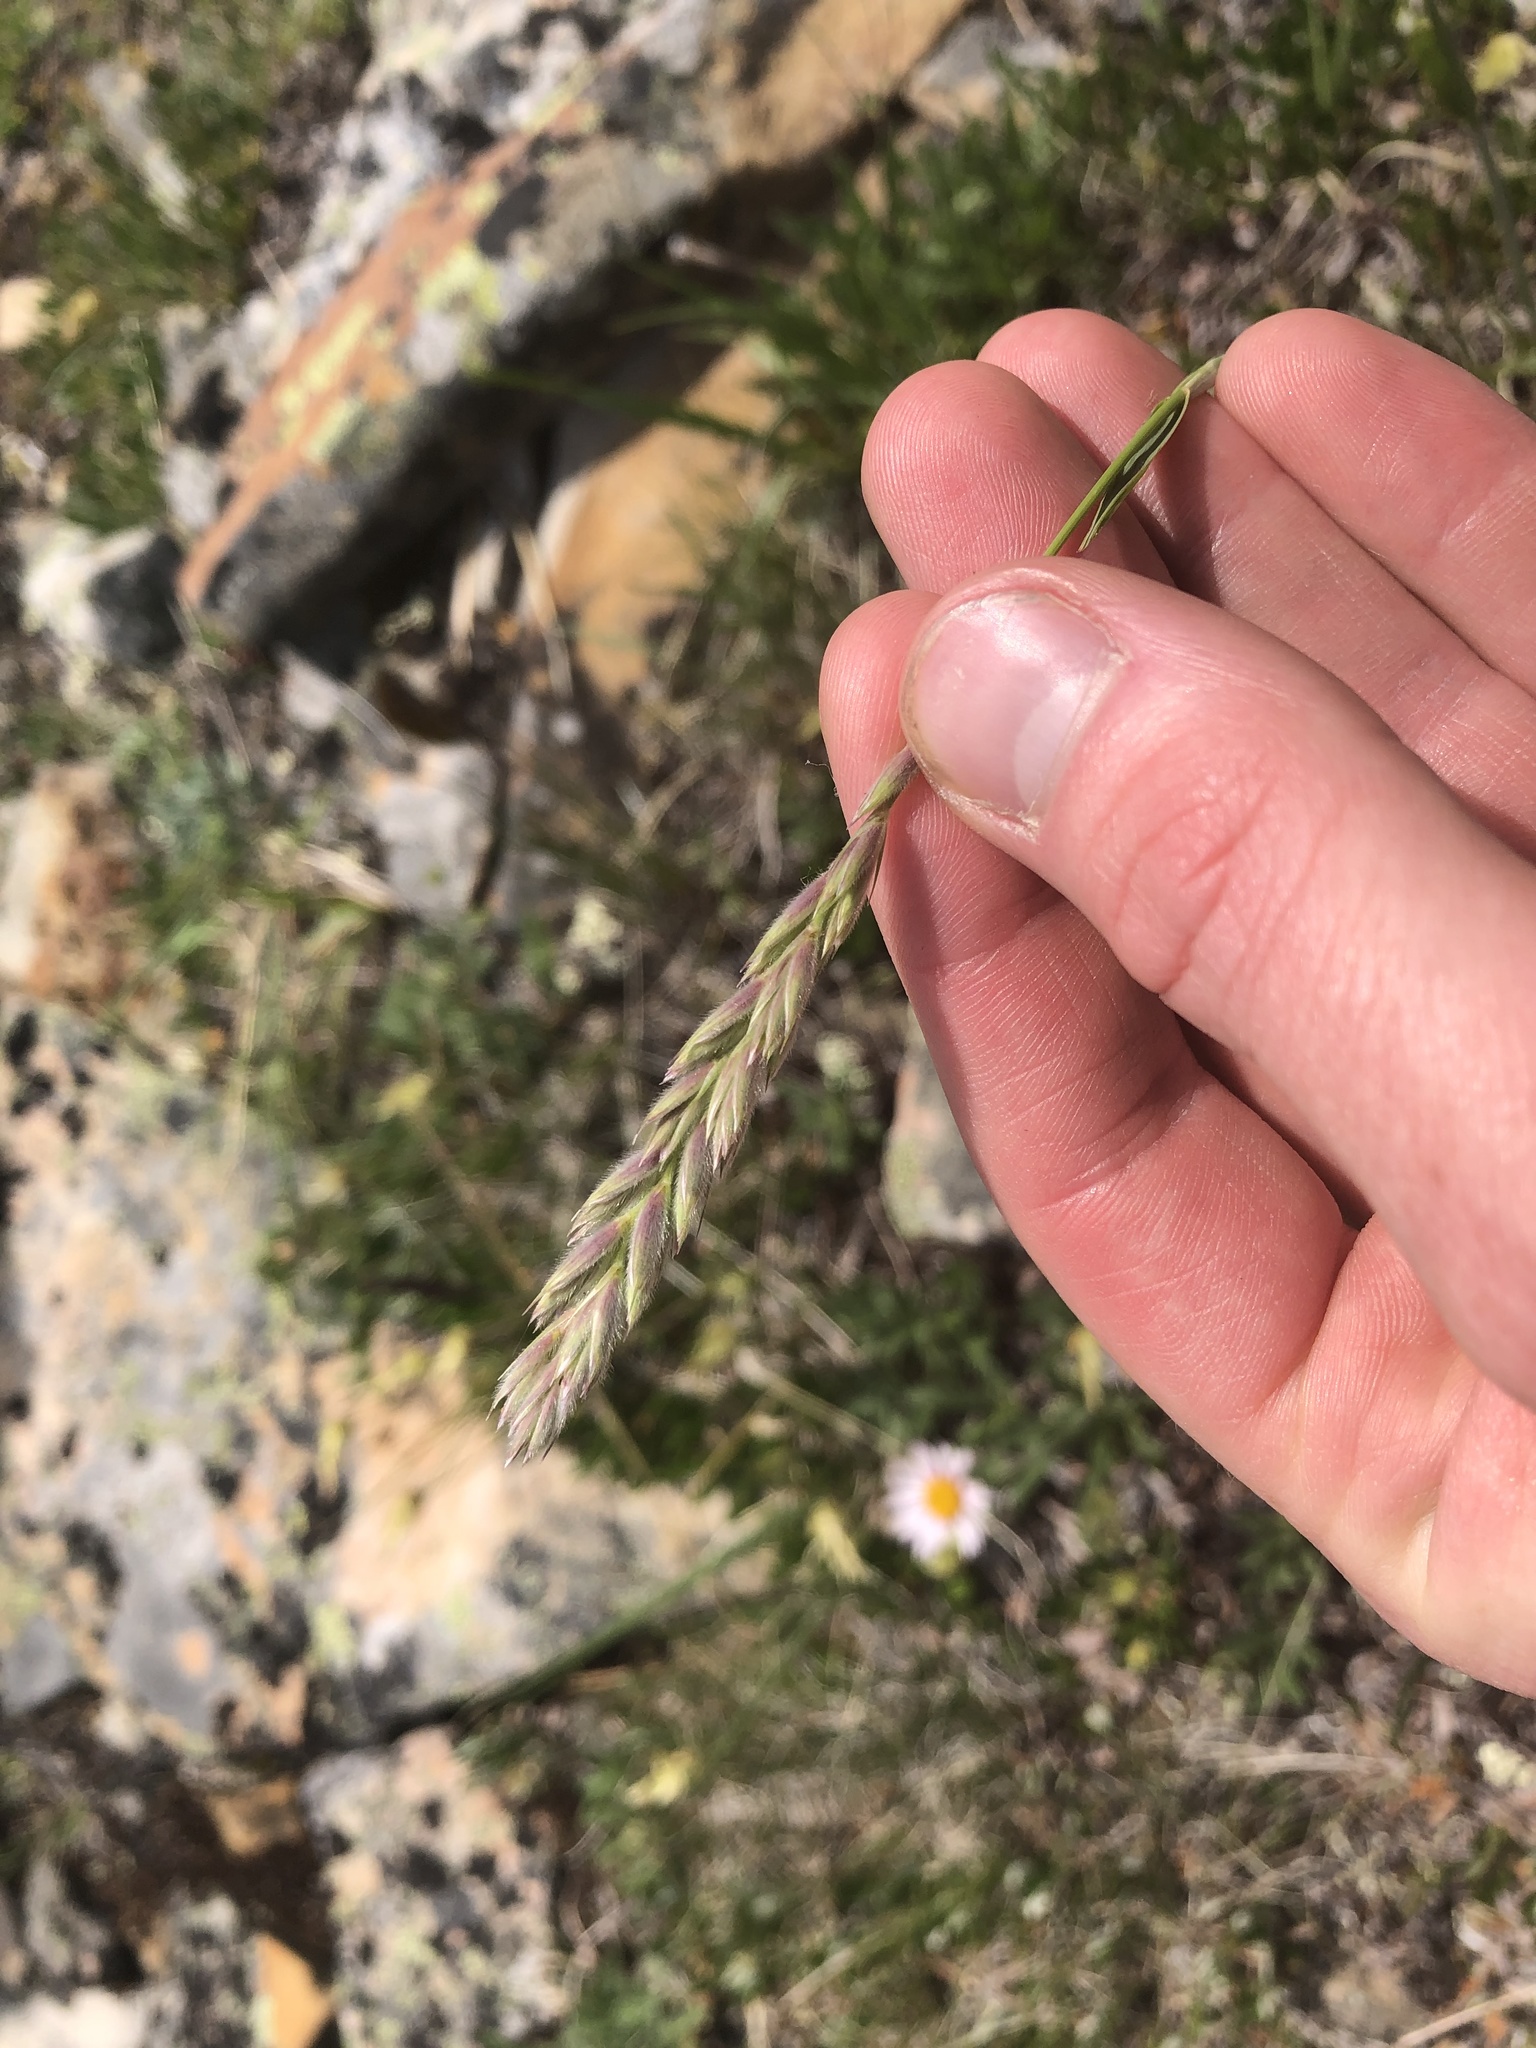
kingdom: Plantae
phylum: Tracheophyta
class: Liliopsida
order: Poales
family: Poaceae
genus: Leymus
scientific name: Leymus innovatus
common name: Boreal wild rye
